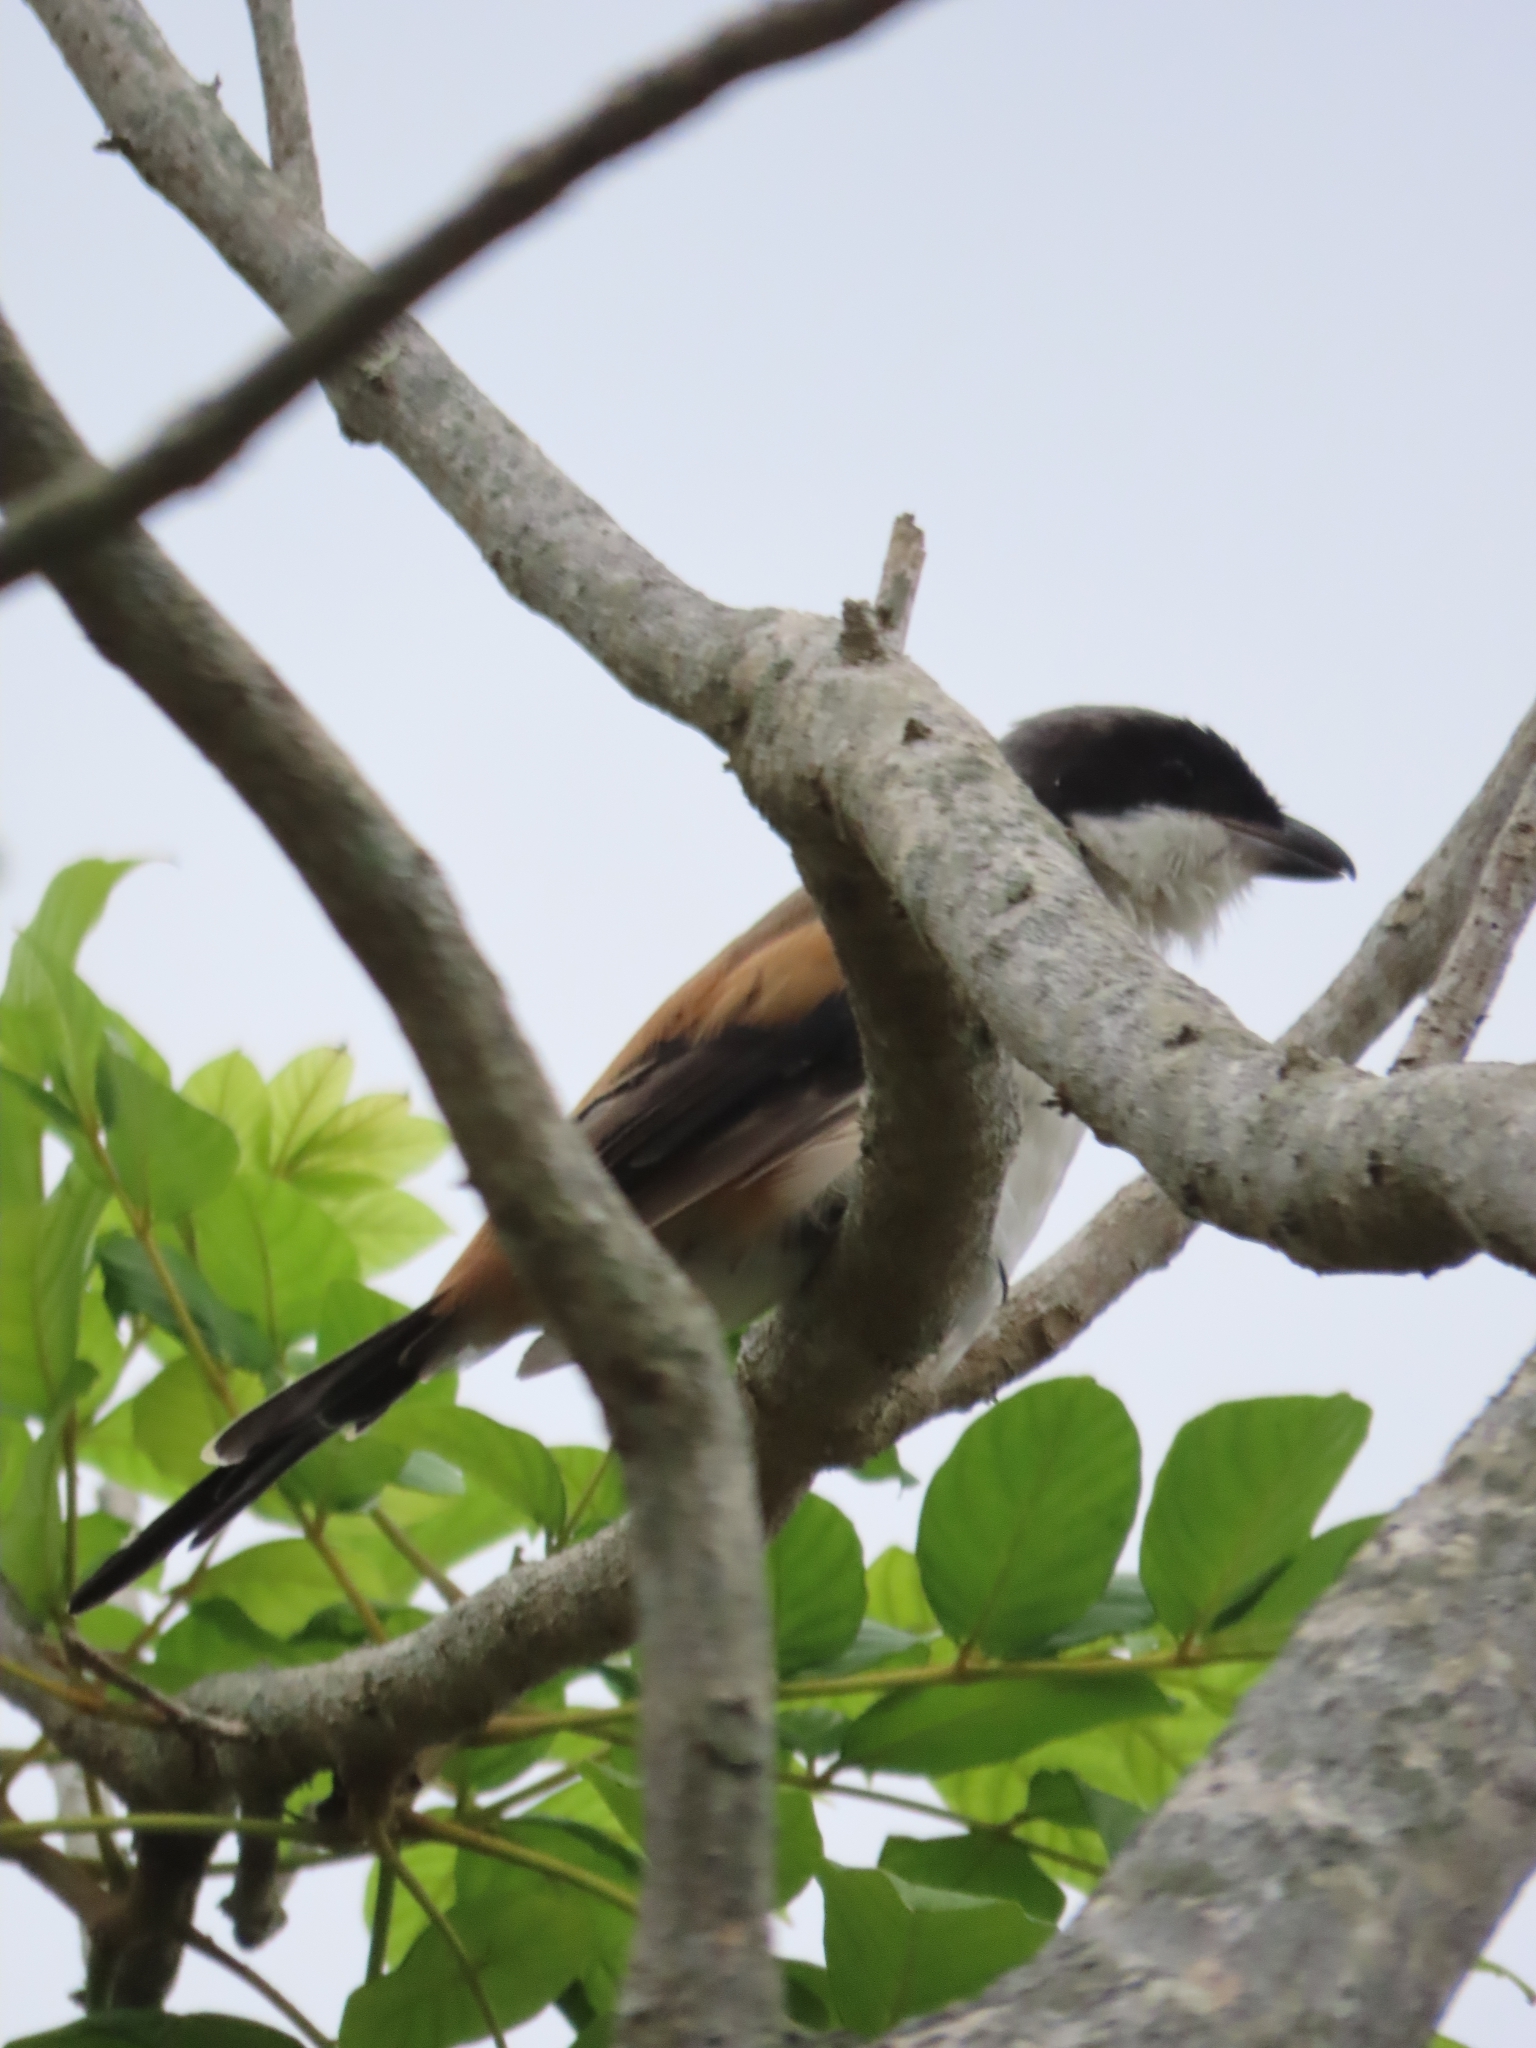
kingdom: Animalia
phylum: Chordata
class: Aves
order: Passeriformes
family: Laniidae
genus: Lanius
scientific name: Lanius schach
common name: Long-tailed shrike
